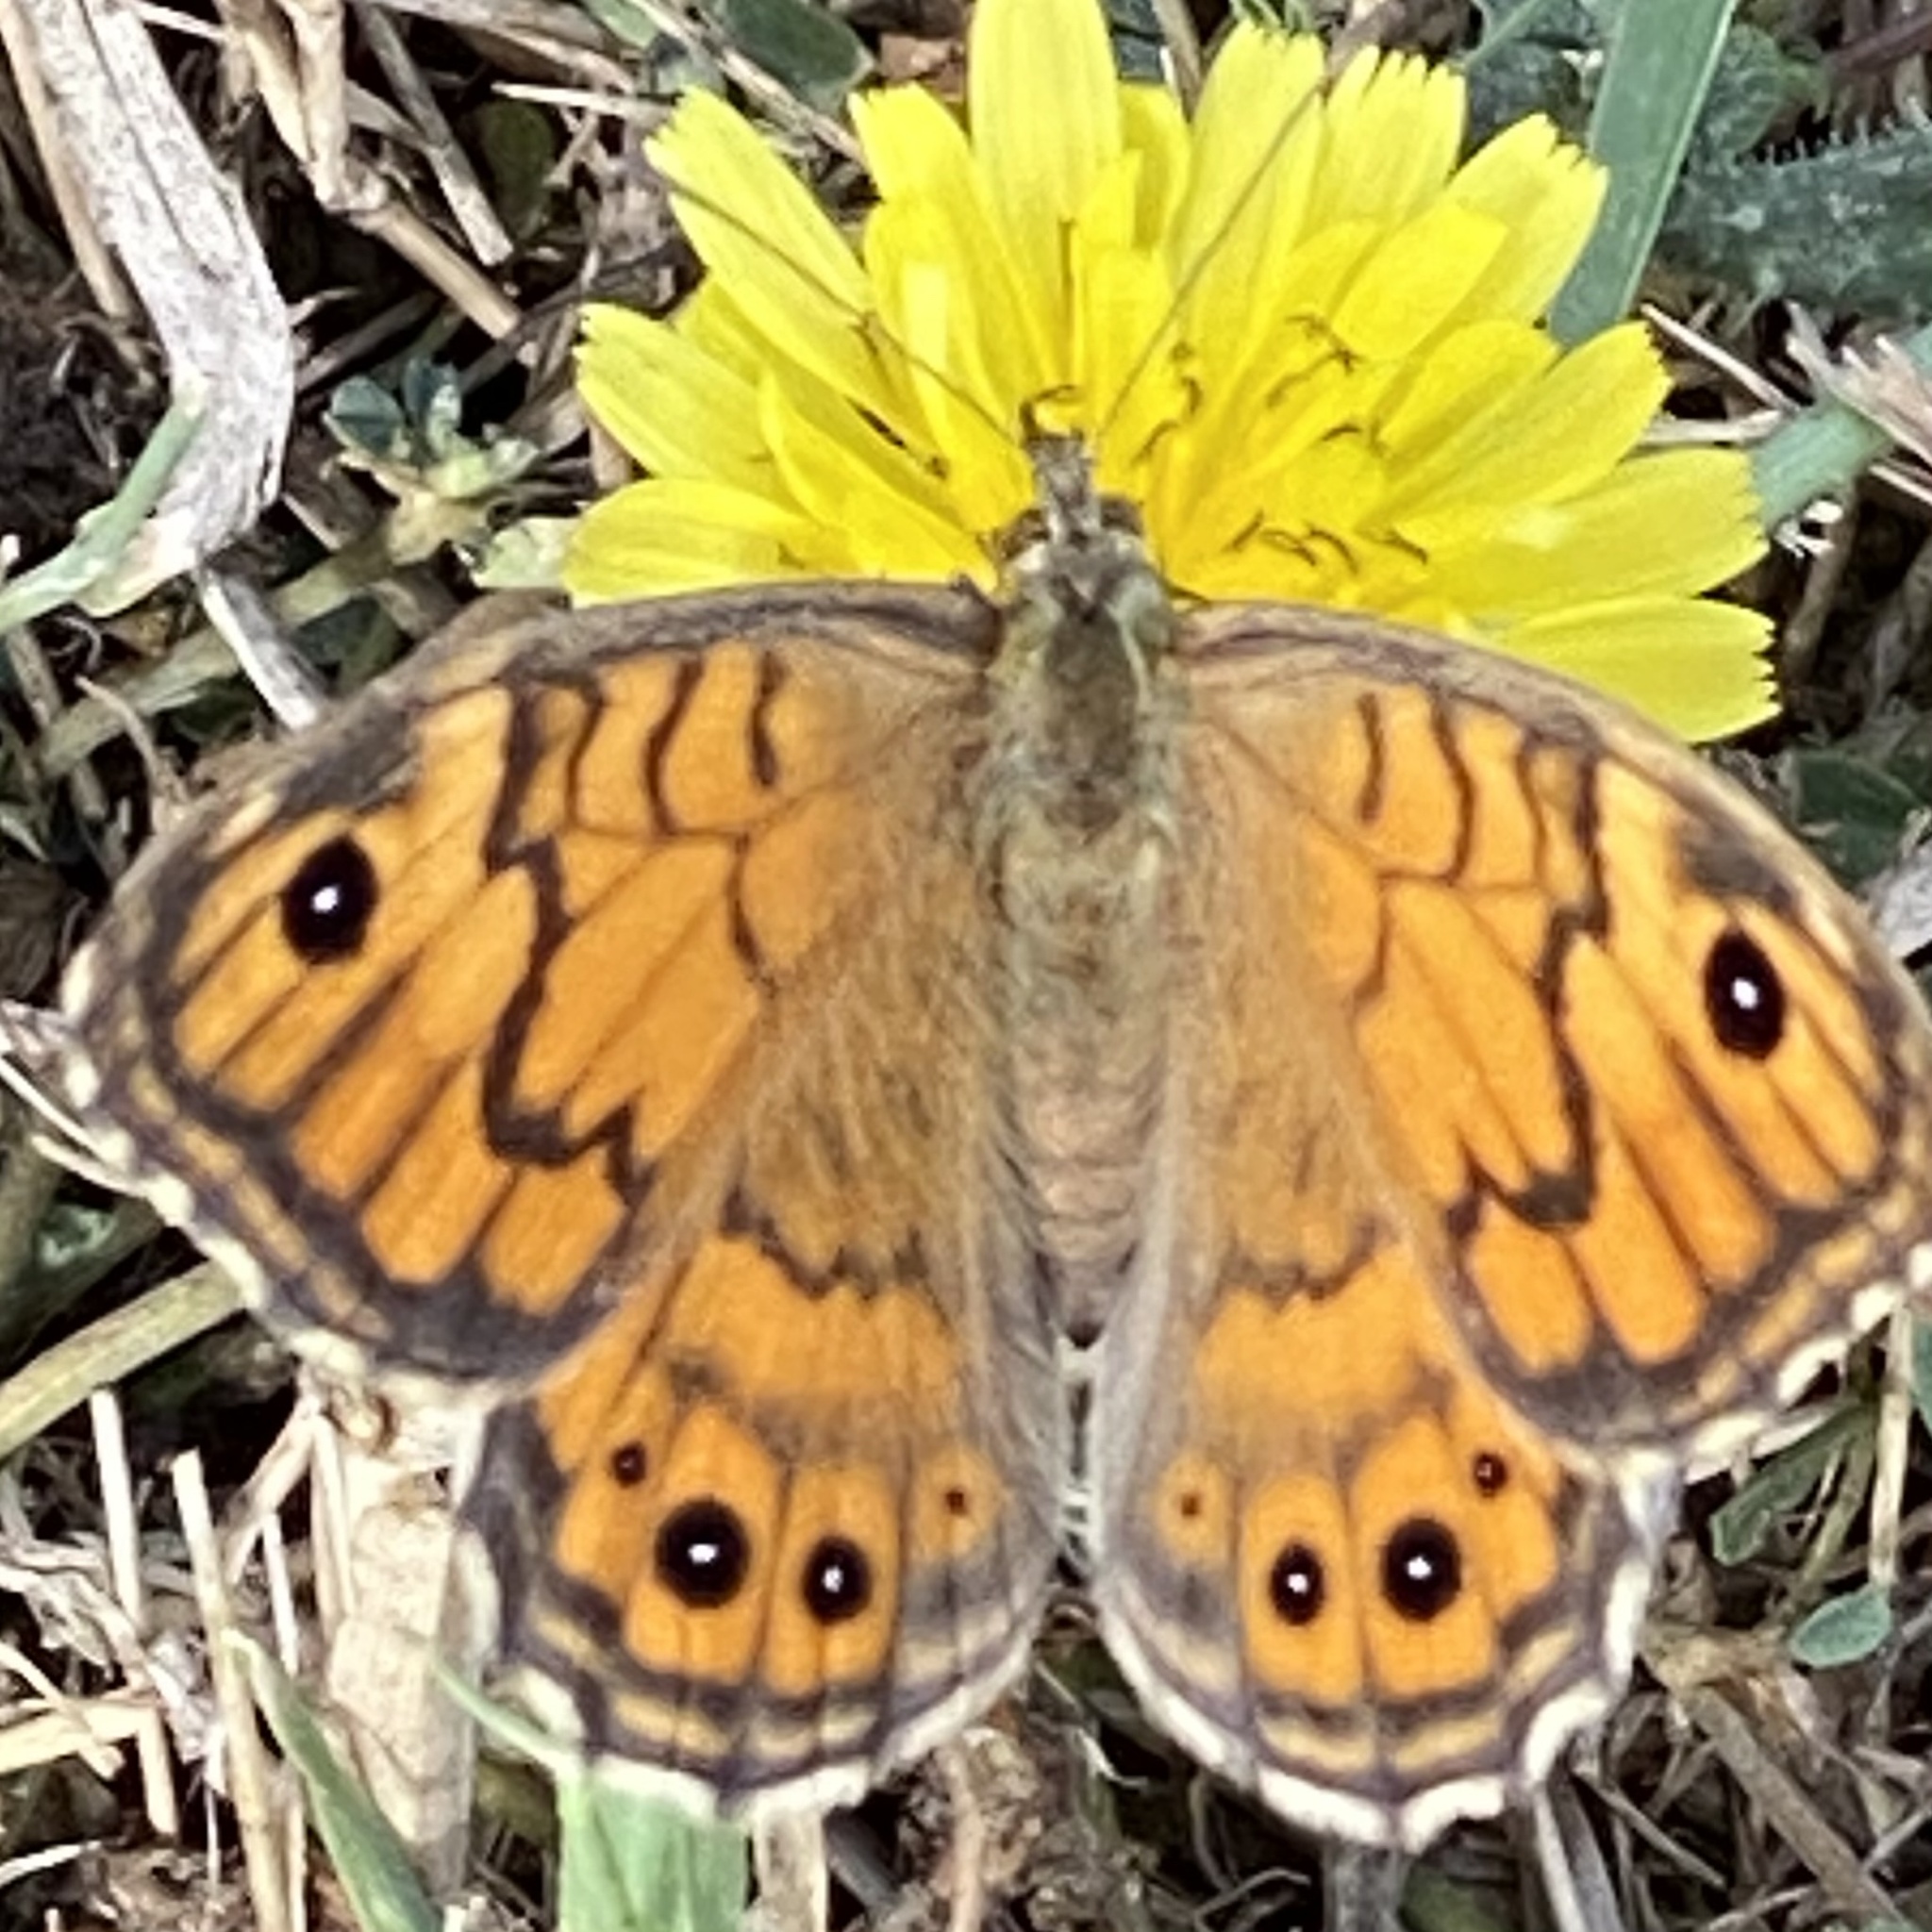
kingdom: Animalia
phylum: Arthropoda
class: Insecta
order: Lepidoptera
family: Nymphalidae
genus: Pararge
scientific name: Pararge Lasiommata megera
